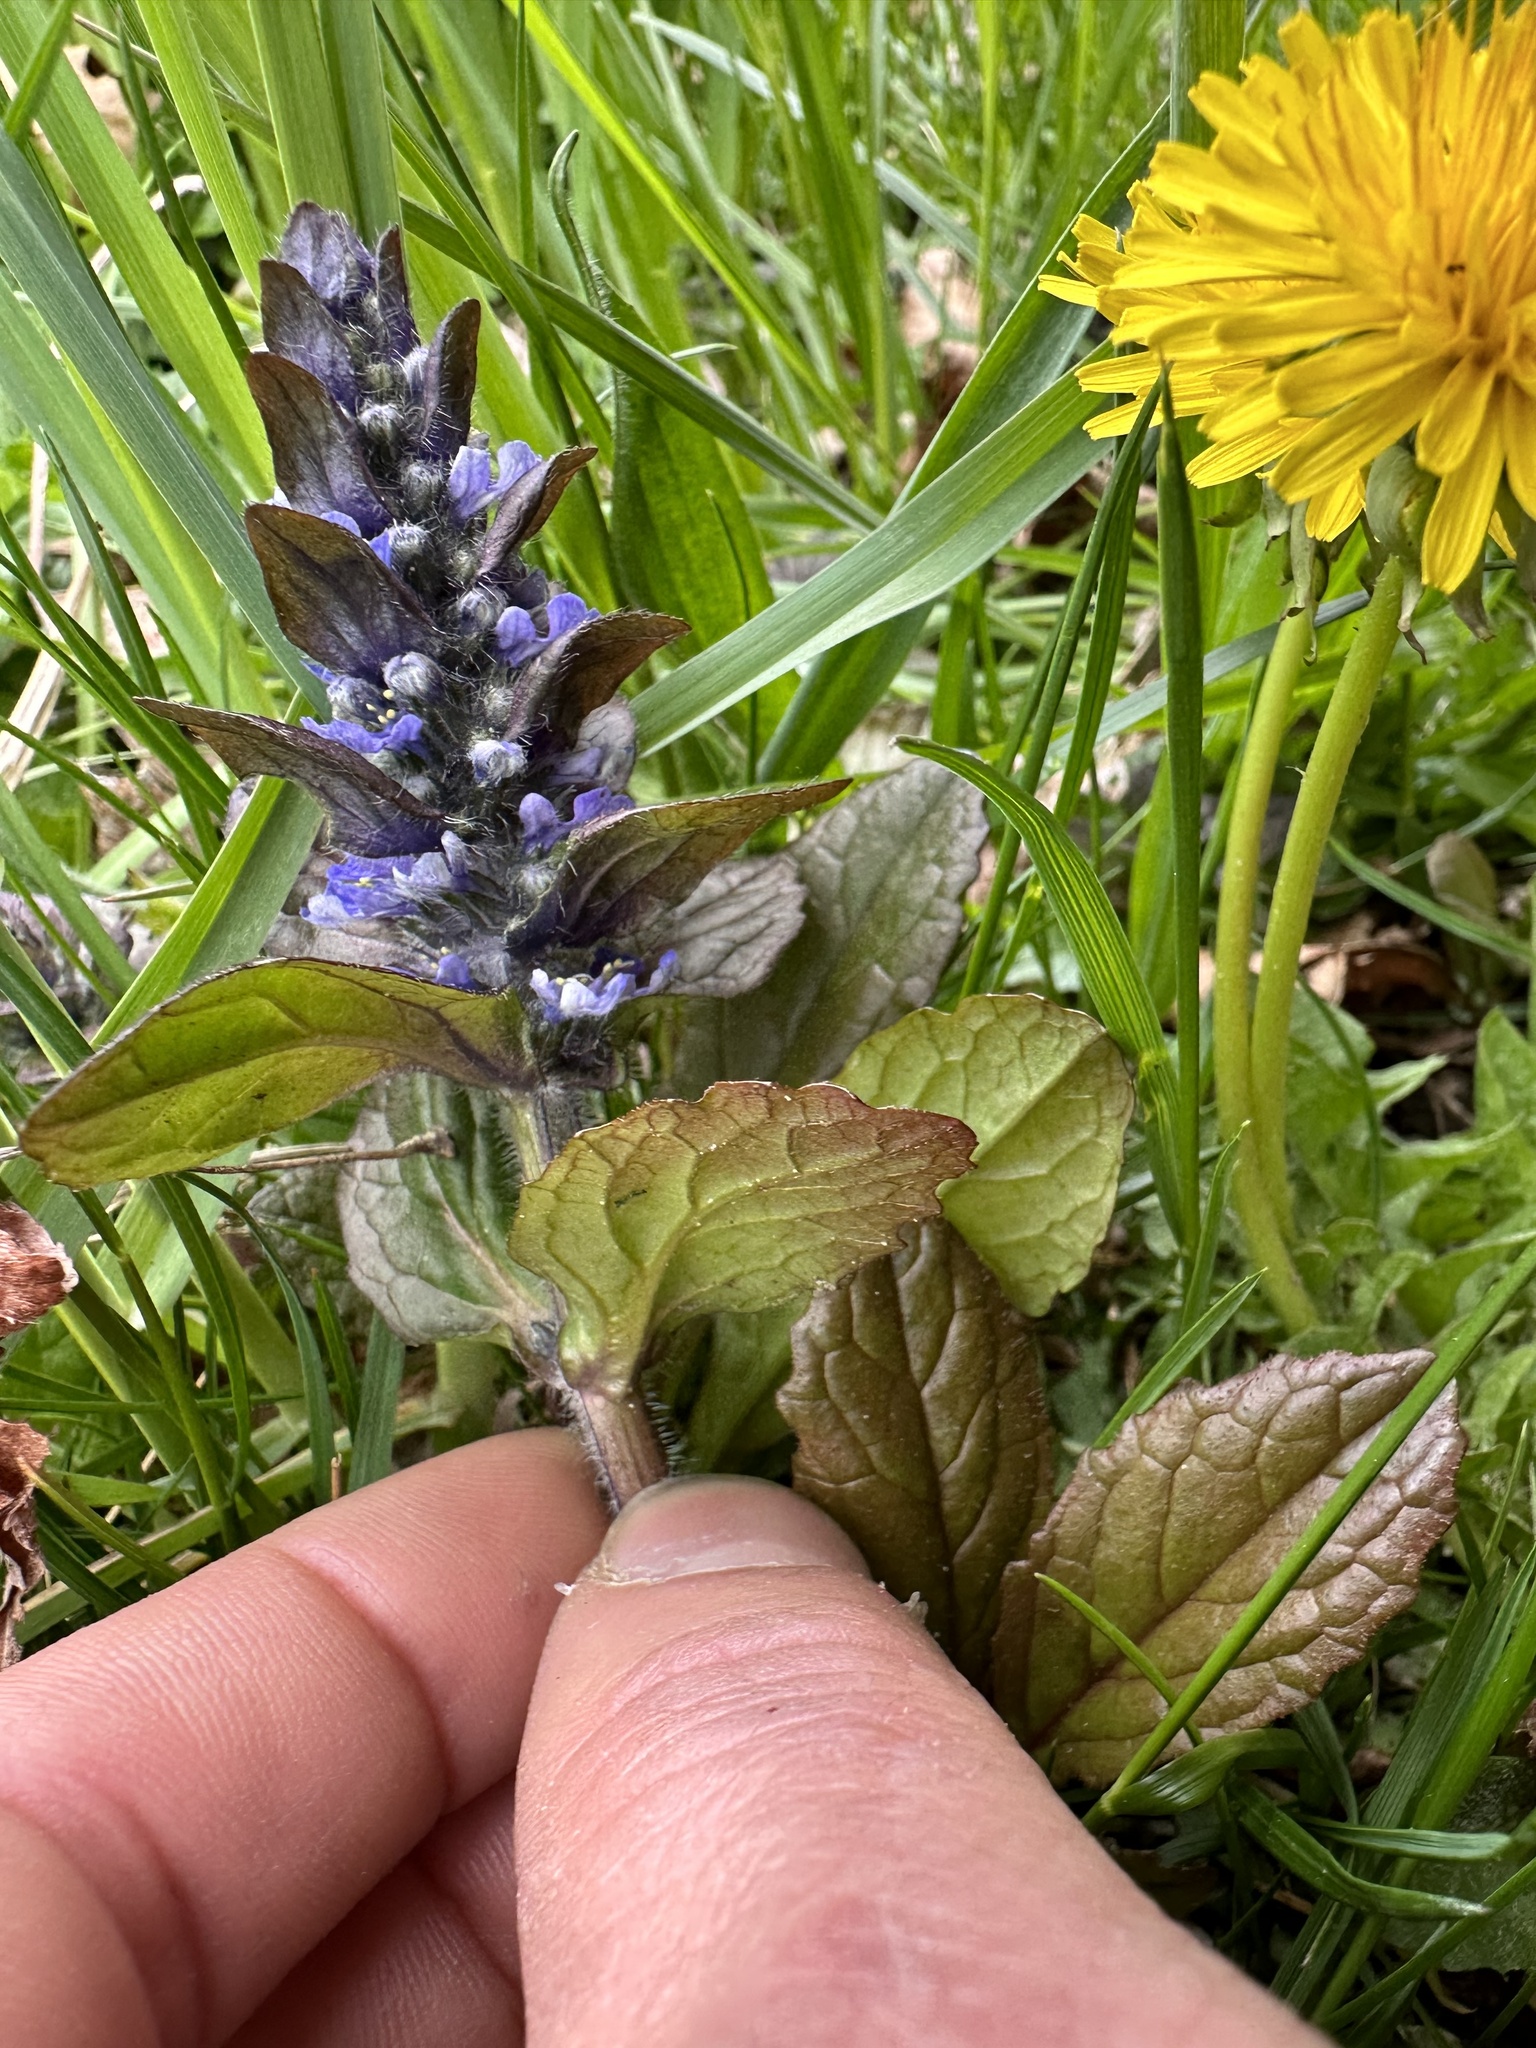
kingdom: Plantae
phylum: Tracheophyta
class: Magnoliopsida
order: Lamiales
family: Lamiaceae
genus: Ajuga
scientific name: Ajuga reptans
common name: Bugle
